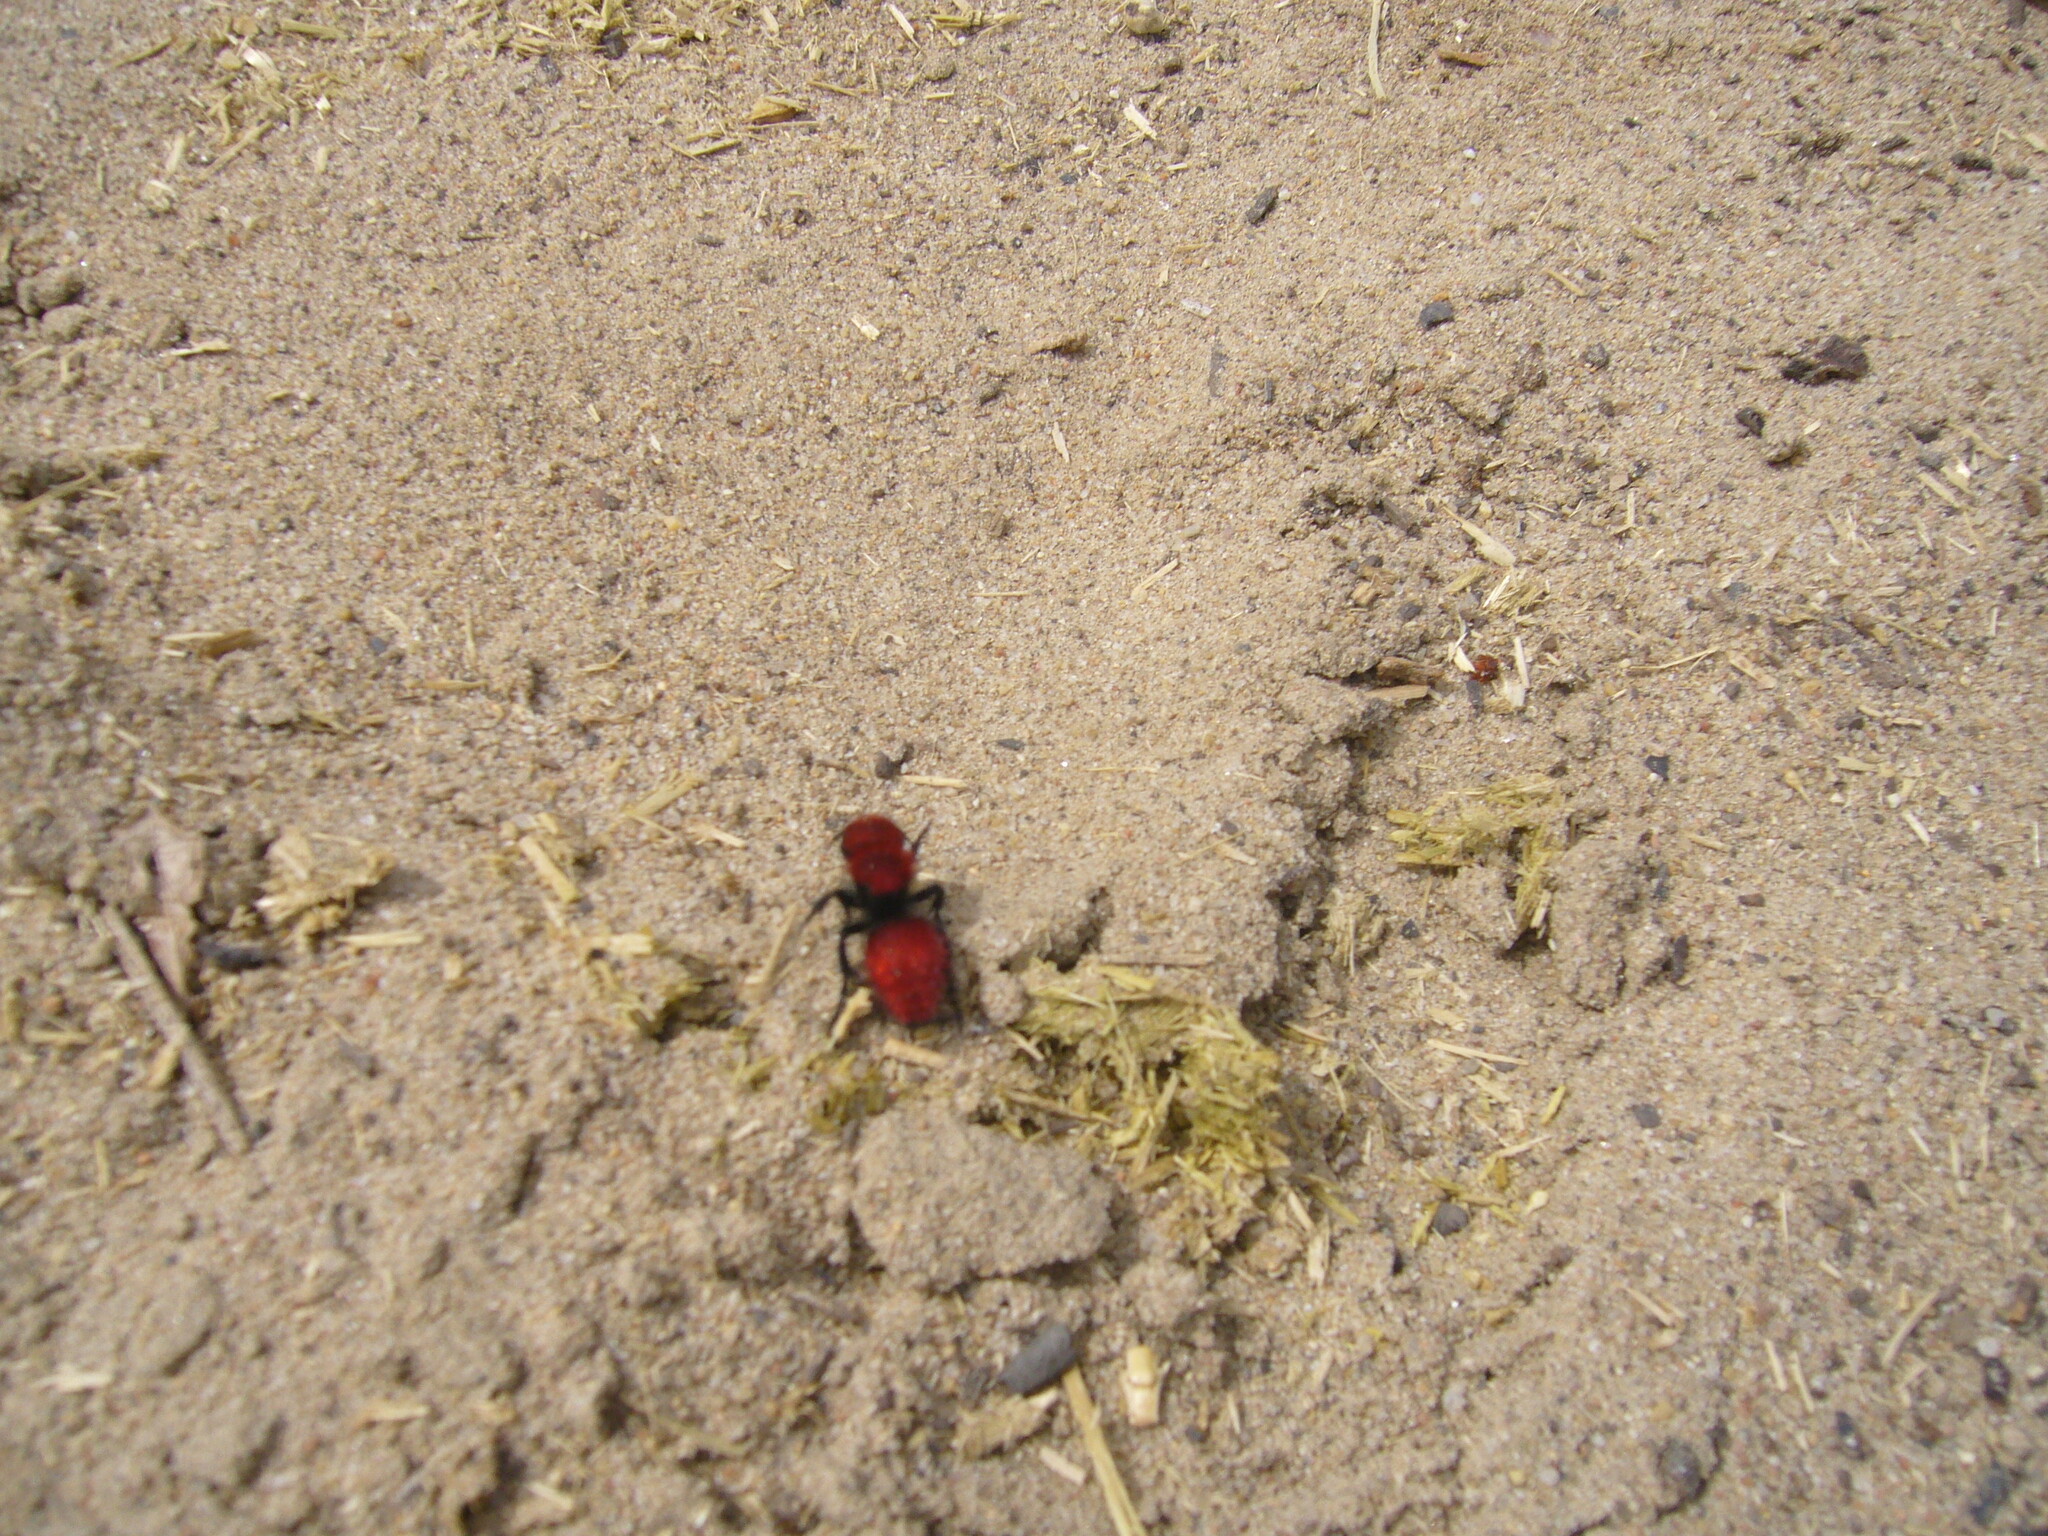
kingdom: Animalia
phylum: Arthropoda
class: Insecta
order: Hymenoptera
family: Mutillidae
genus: Dasymutilla
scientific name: Dasymutilla
